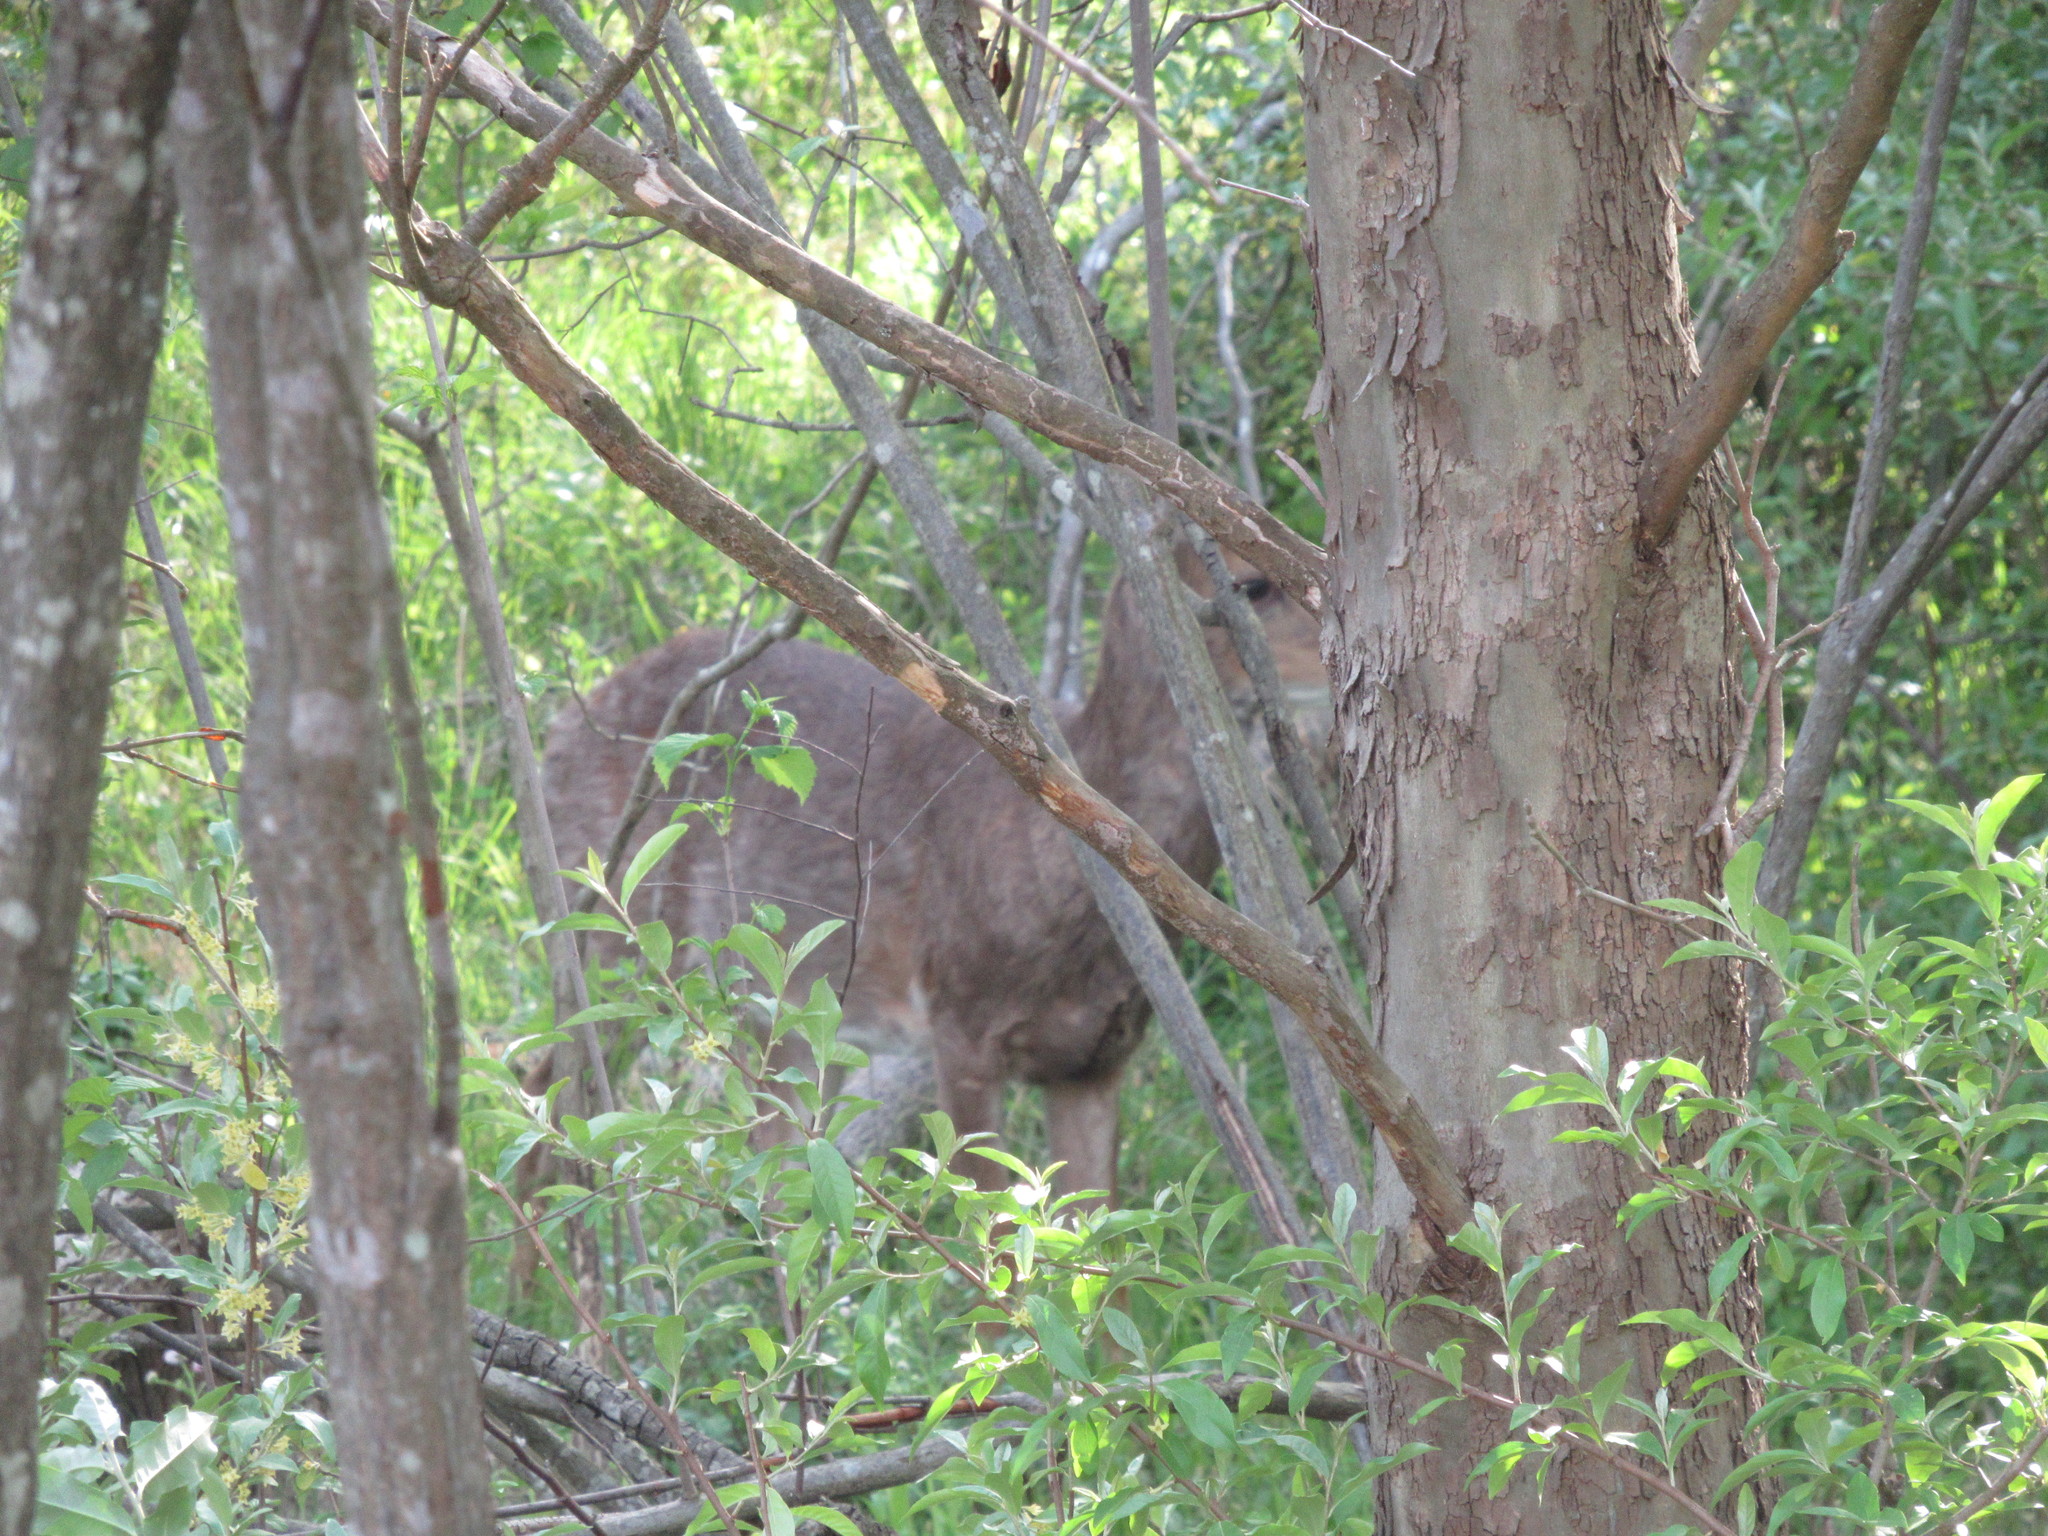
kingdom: Animalia
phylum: Chordata
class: Mammalia
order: Artiodactyla
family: Cervidae
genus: Odocoileus
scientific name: Odocoileus virginianus
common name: White-tailed deer
